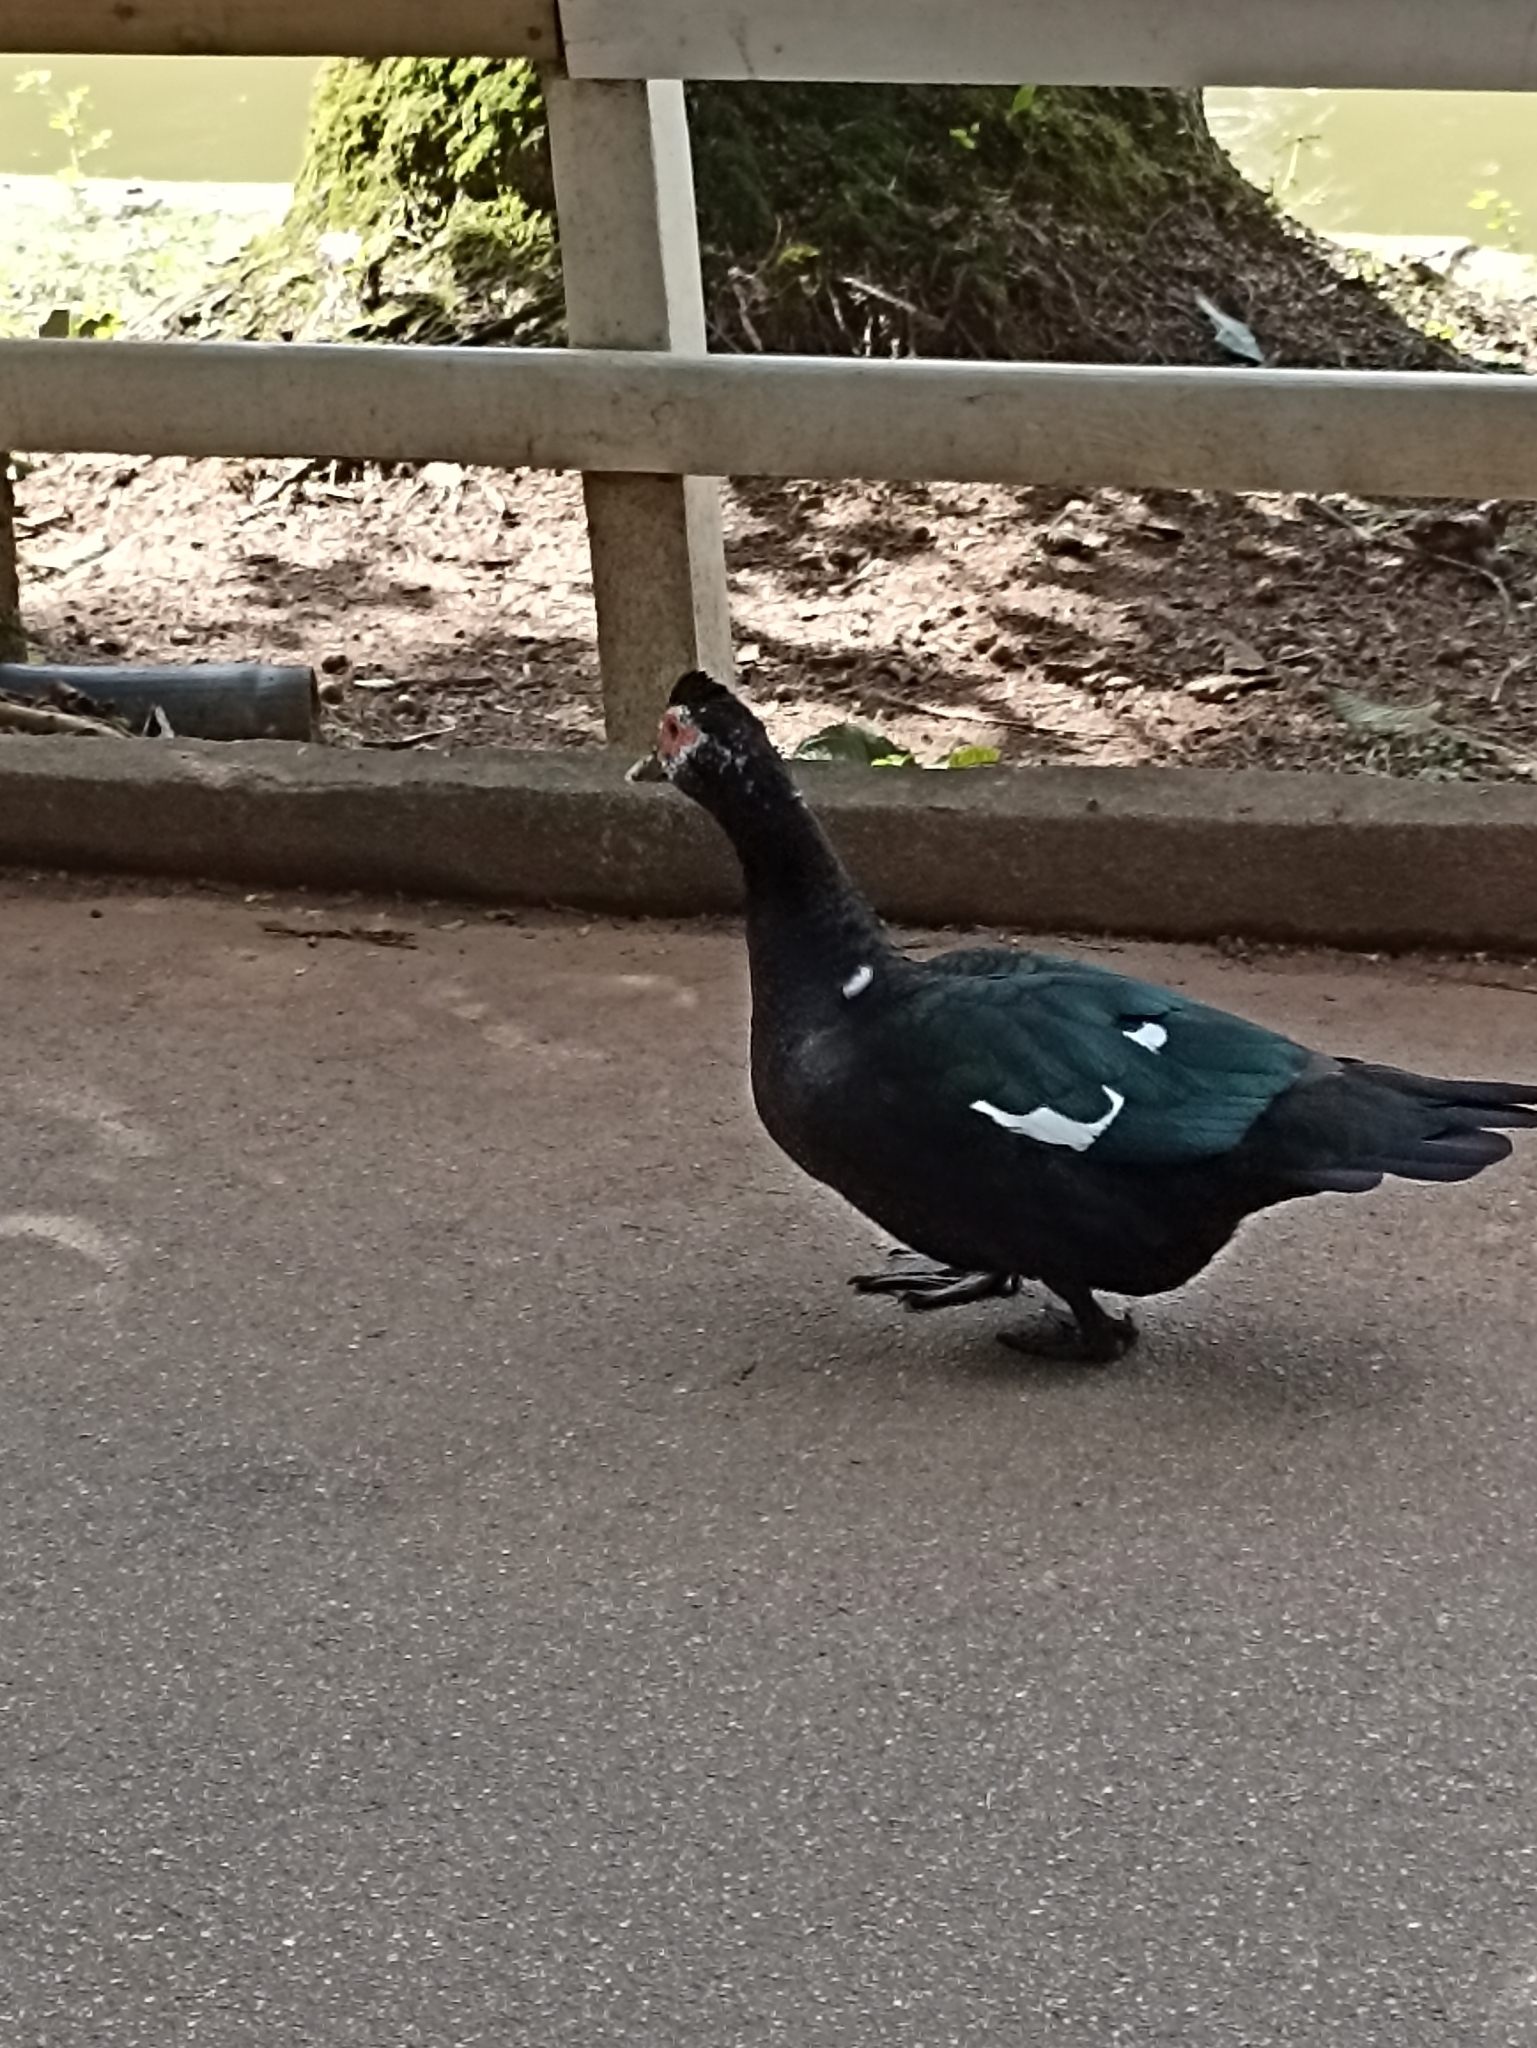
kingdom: Animalia
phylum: Chordata
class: Aves
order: Anseriformes
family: Anatidae
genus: Cairina
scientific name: Cairina moschata
